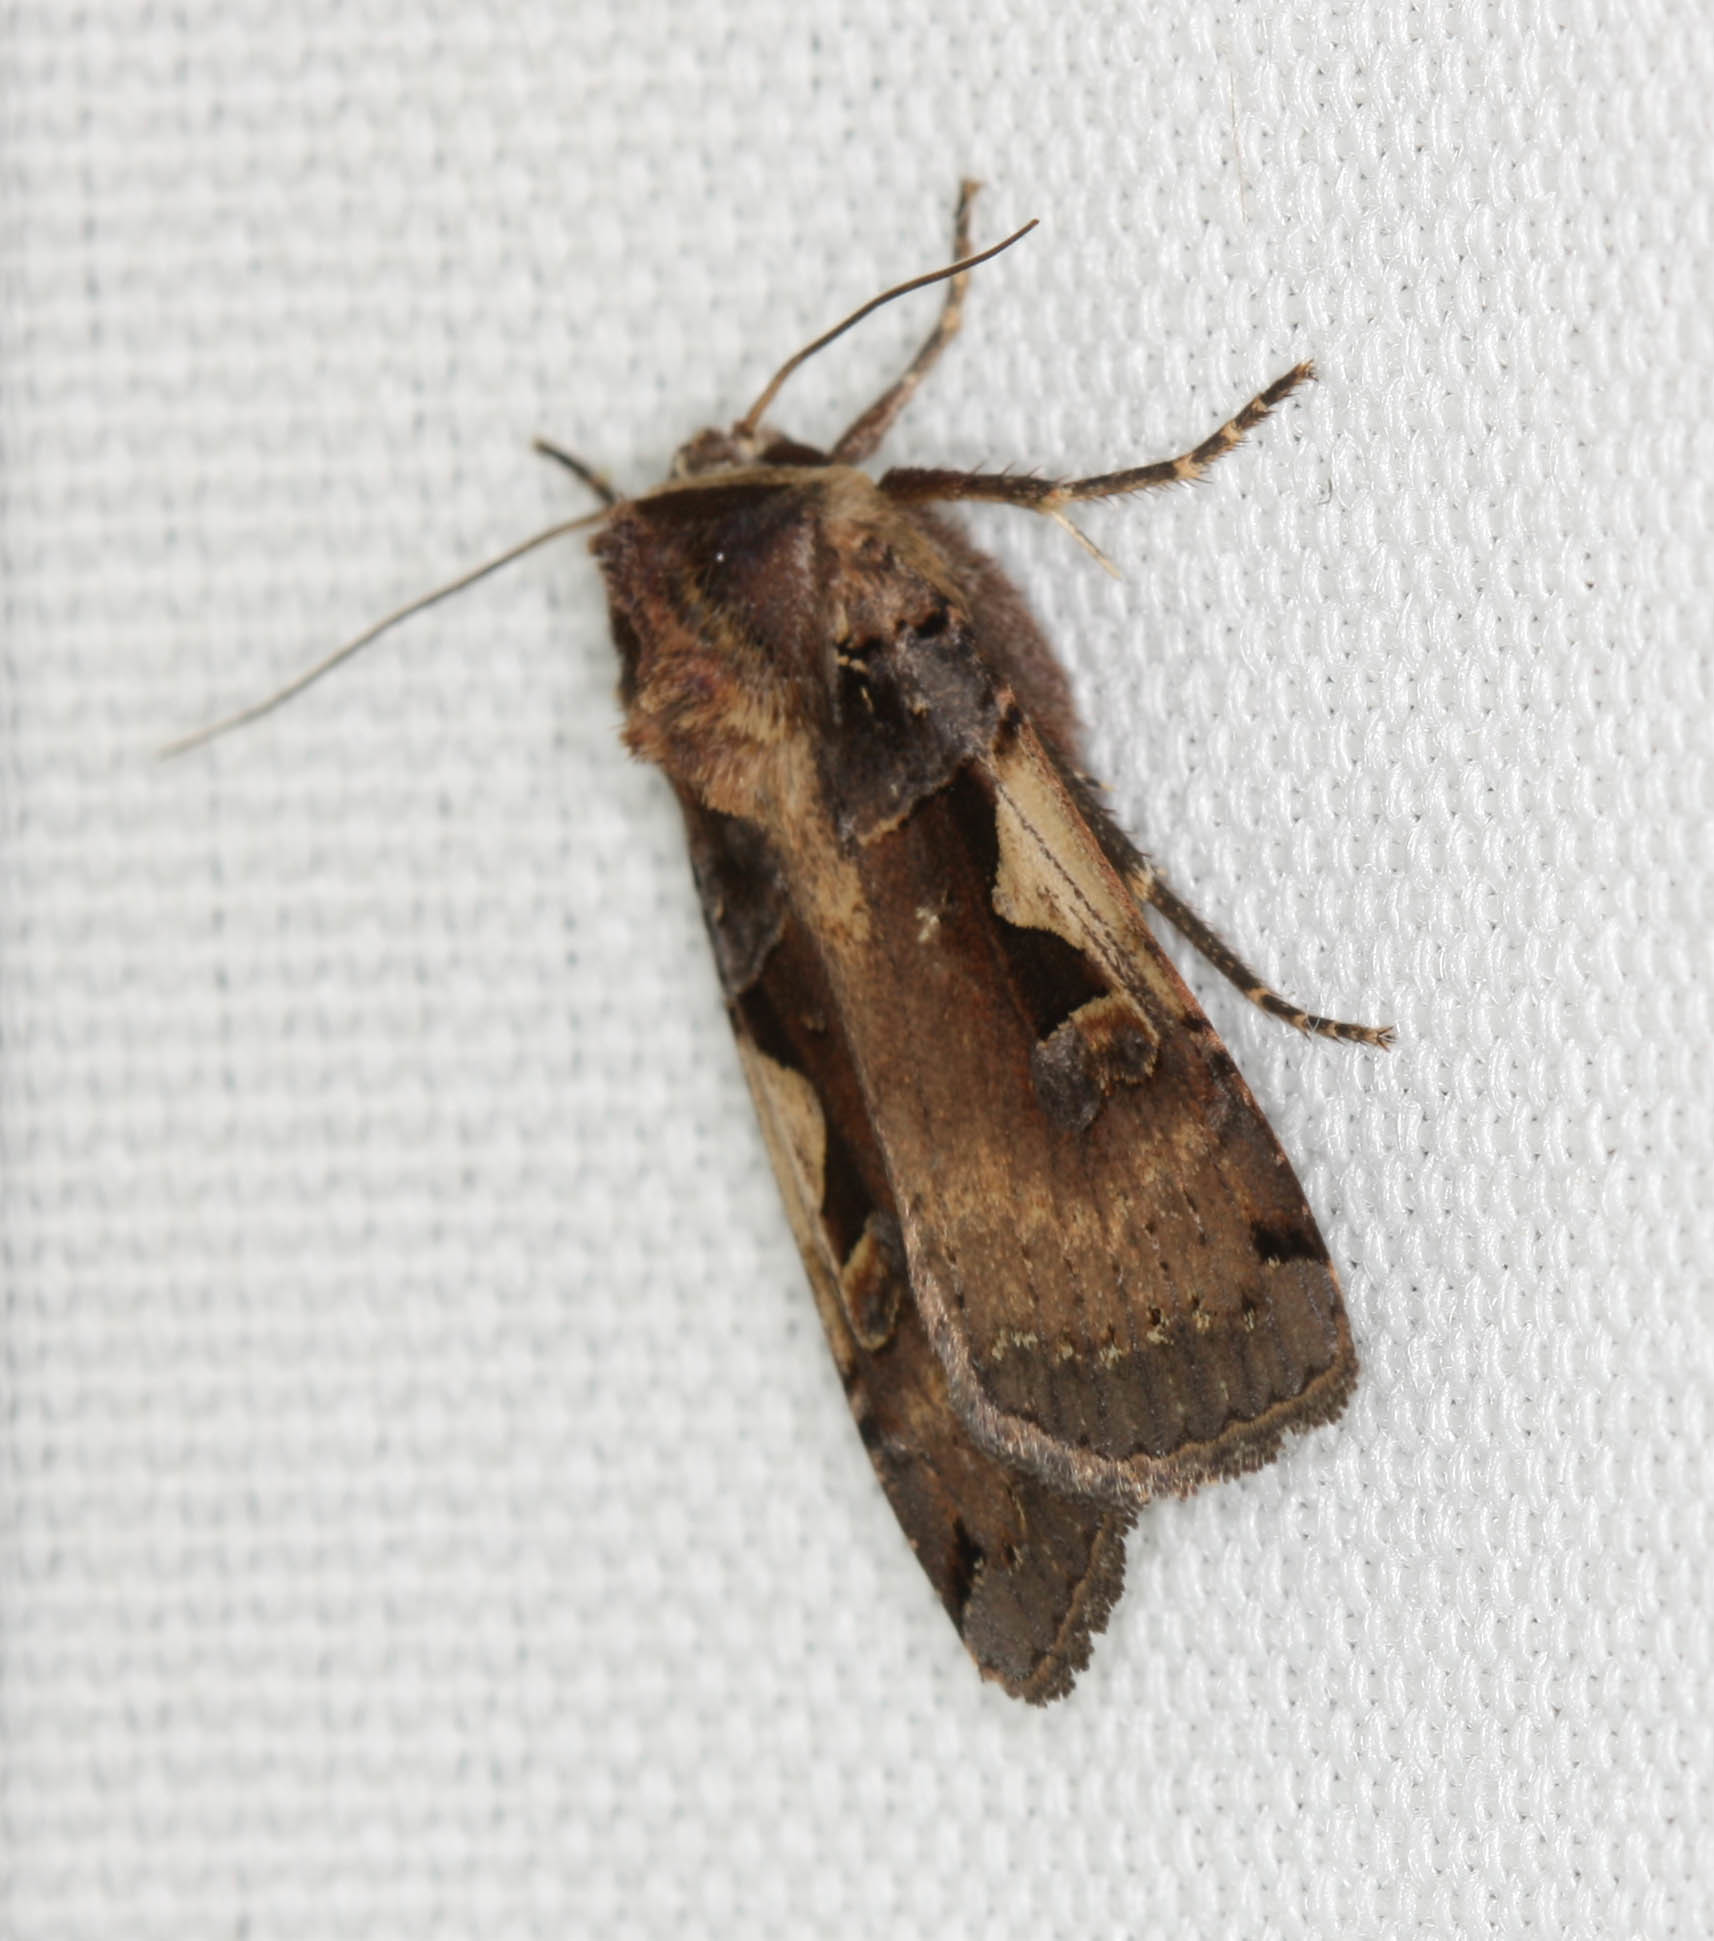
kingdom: Animalia
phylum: Arthropoda
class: Insecta
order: Lepidoptera
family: Noctuidae
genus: Xestia
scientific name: Xestia c-nigrum
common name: Setaceous hebrew character
